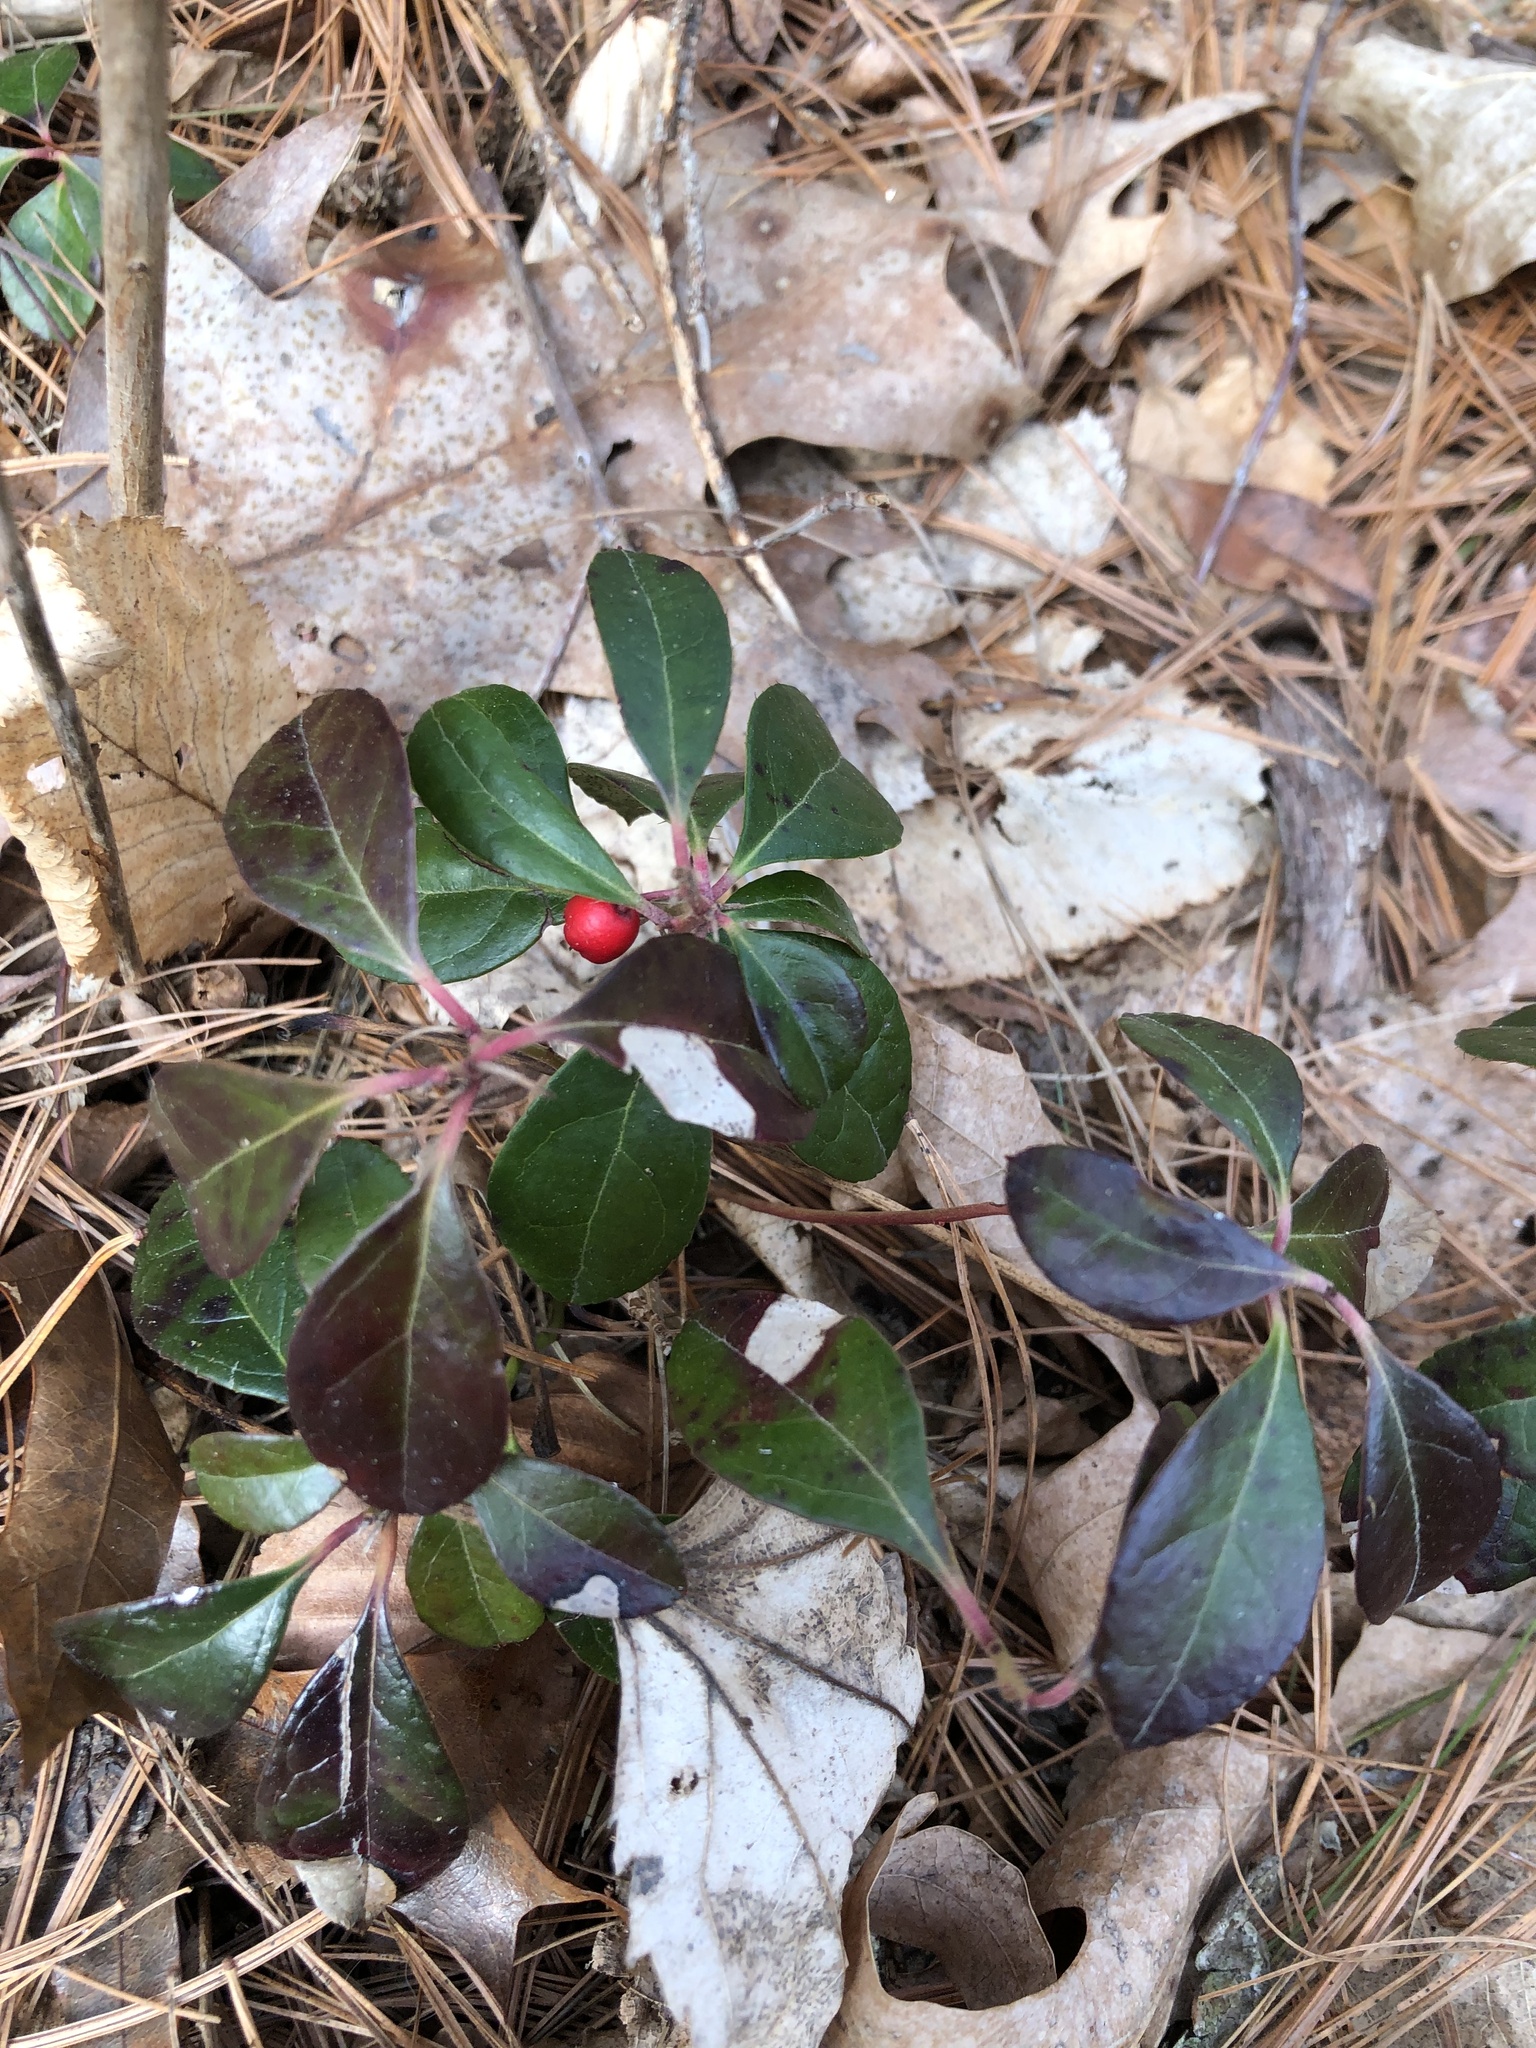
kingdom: Plantae
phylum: Tracheophyta
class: Magnoliopsida
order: Ericales
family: Ericaceae
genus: Gaultheria
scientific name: Gaultheria procumbens
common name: Checkerberry
